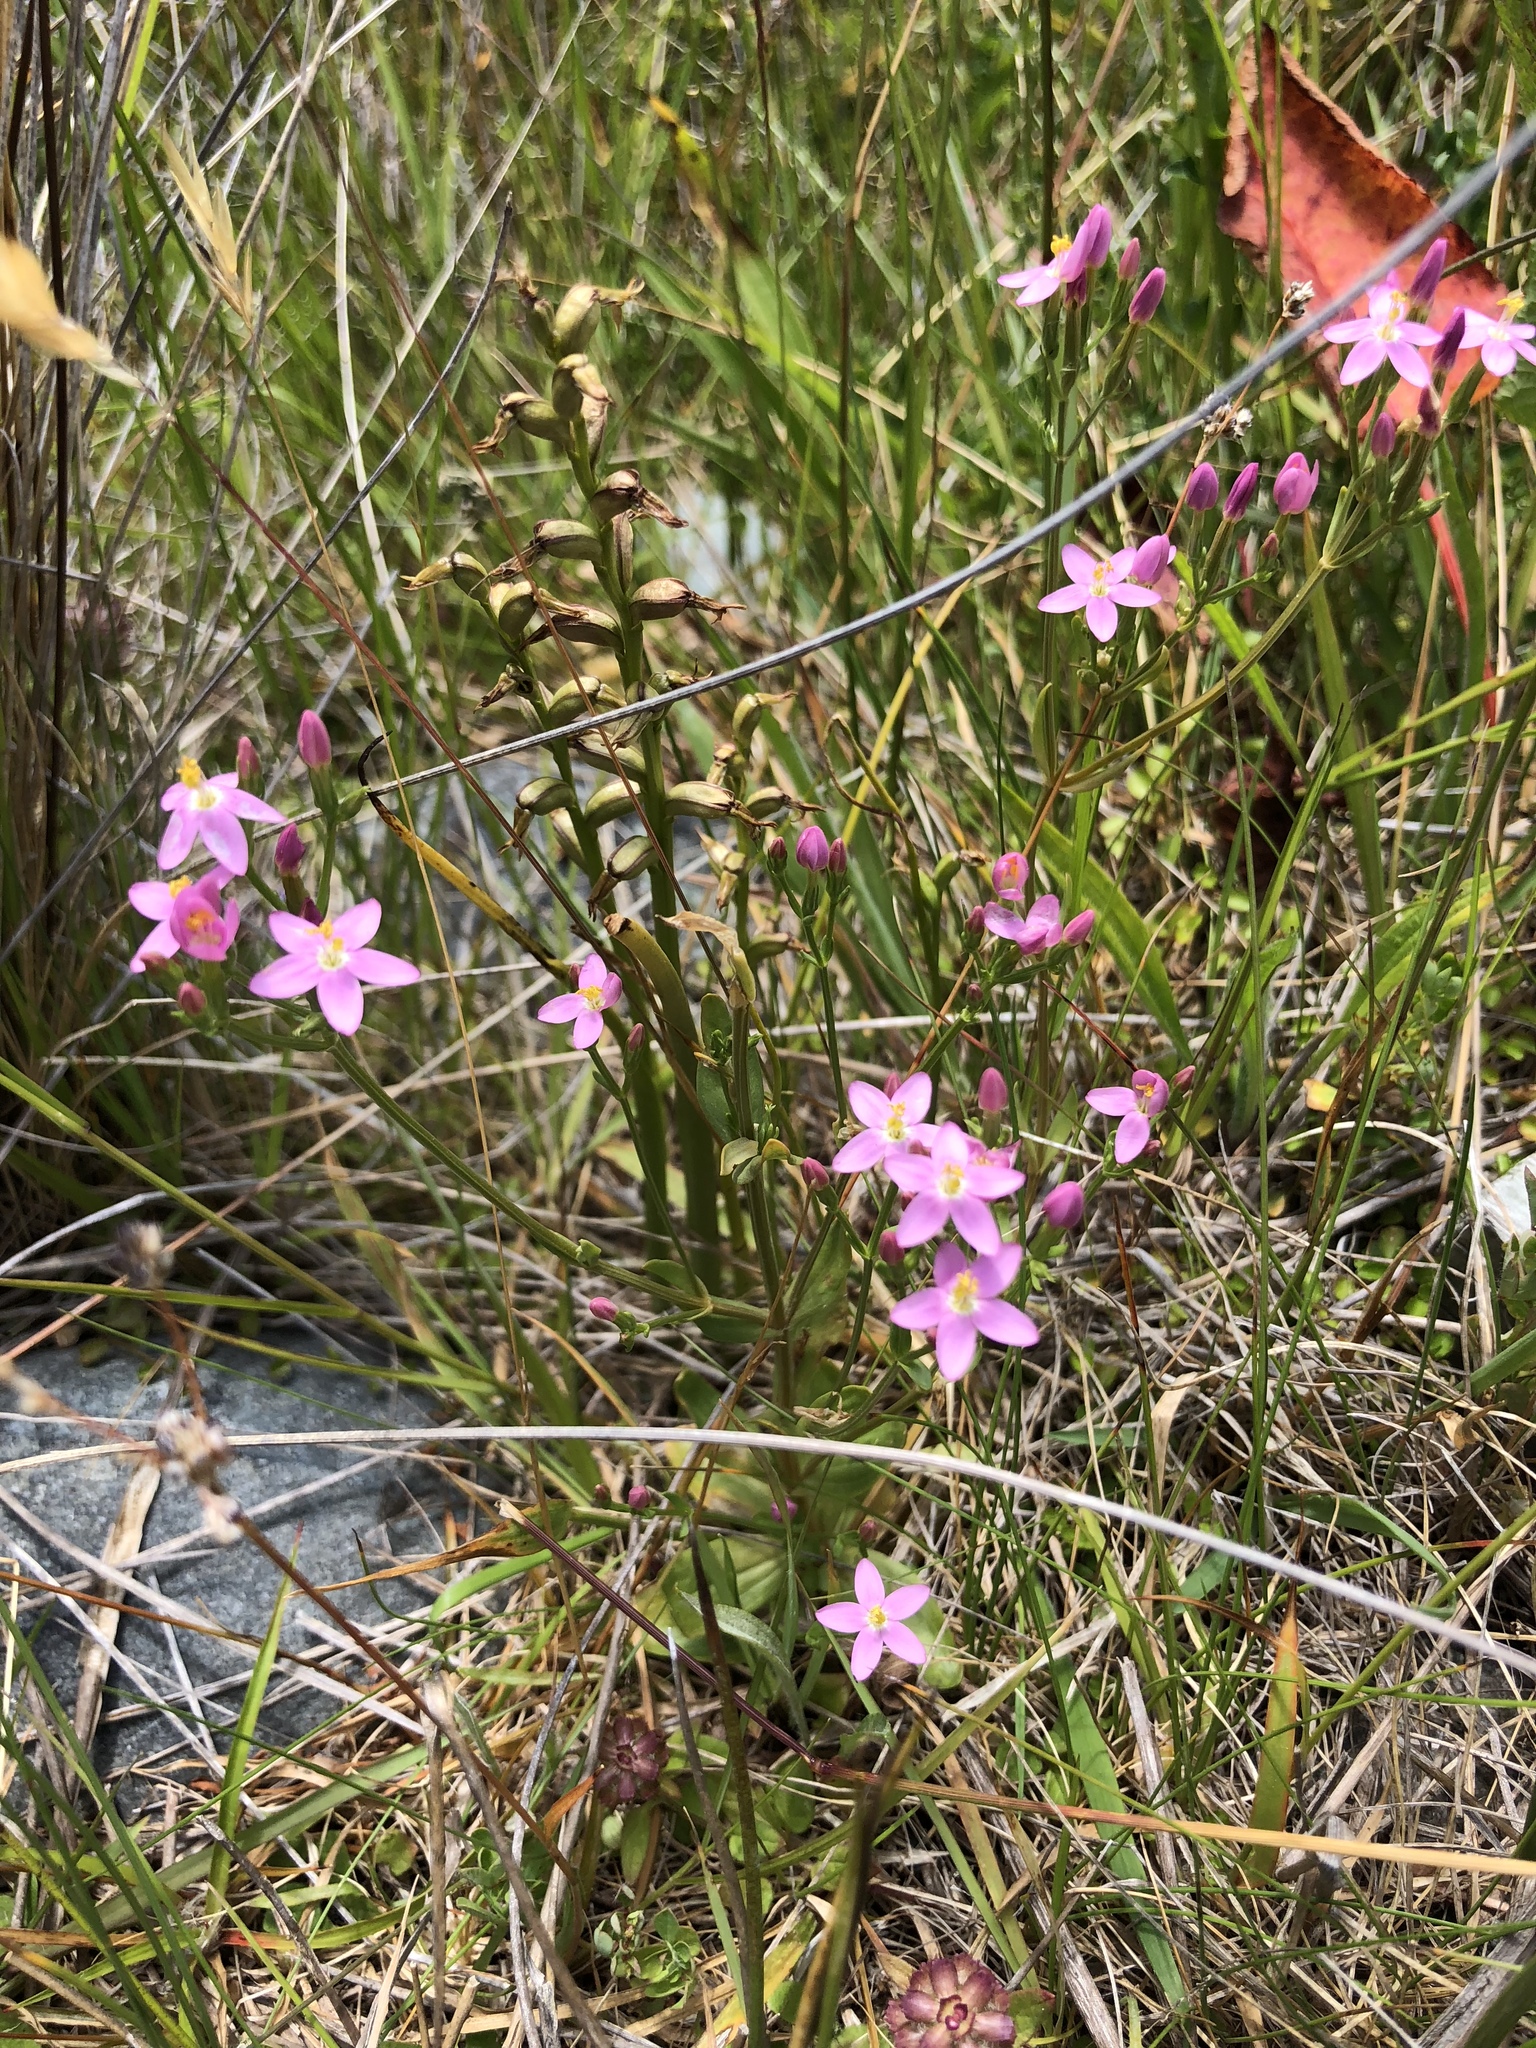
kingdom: Plantae
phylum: Tracheophyta
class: Magnoliopsida
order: Gentianales
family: Gentianaceae
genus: Centaurium
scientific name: Centaurium erythraea
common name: Common centaury
